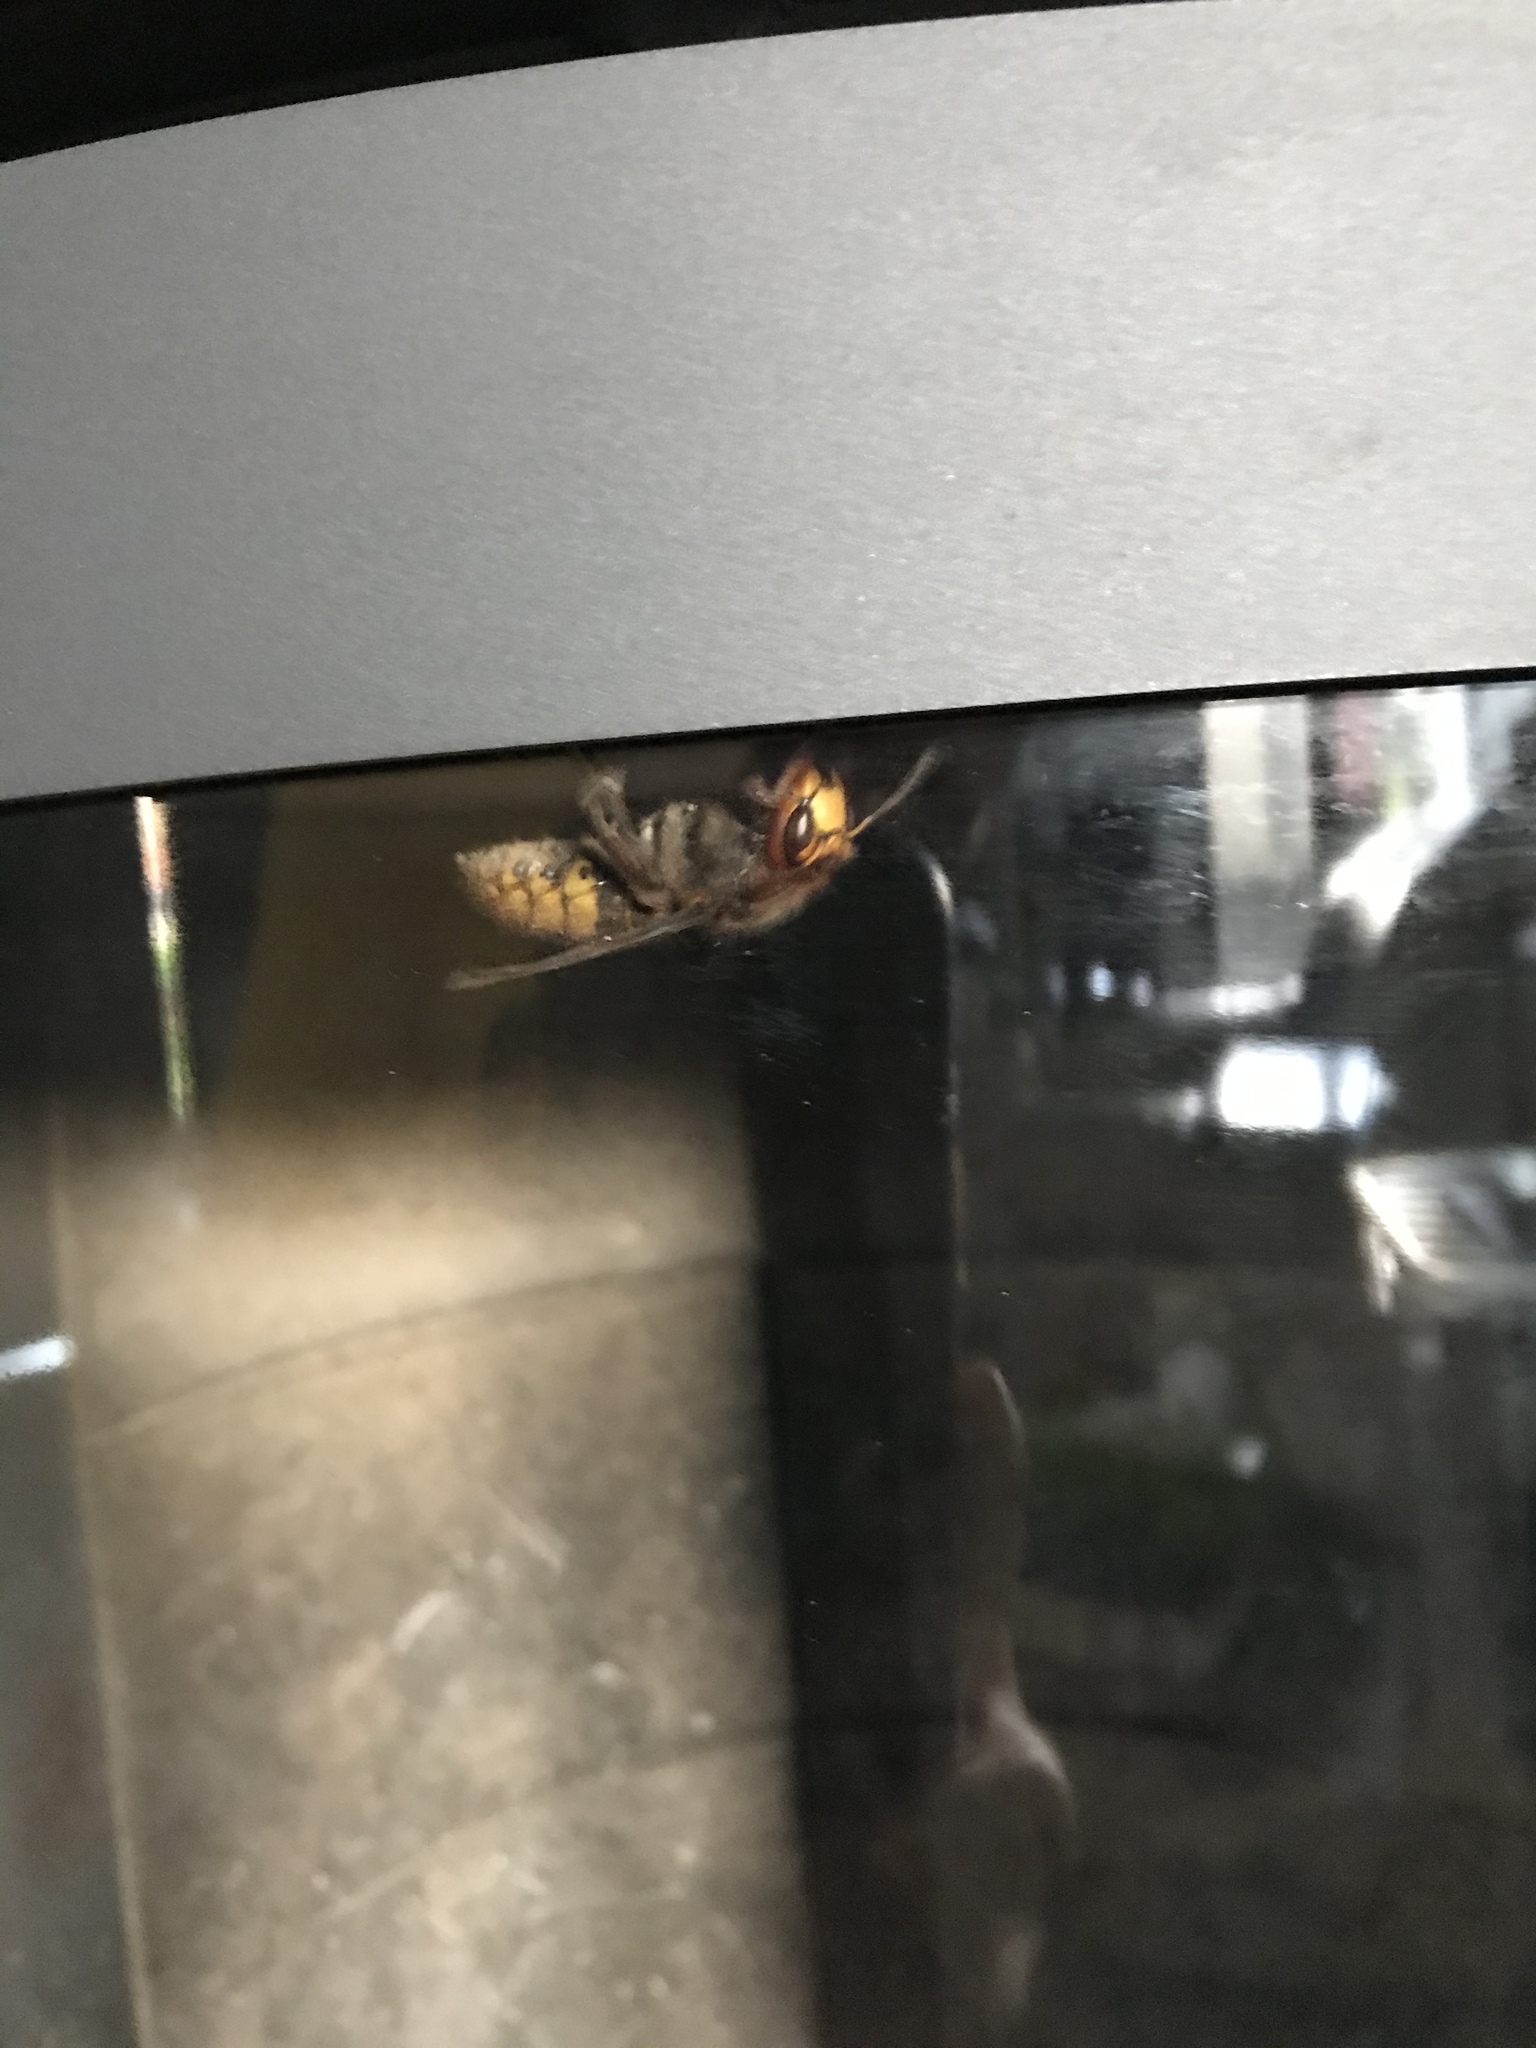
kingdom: Animalia
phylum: Arthropoda
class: Insecta
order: Hymenoptera
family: Vespidae
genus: Vespa
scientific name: Vespa crabro
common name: Hornet
